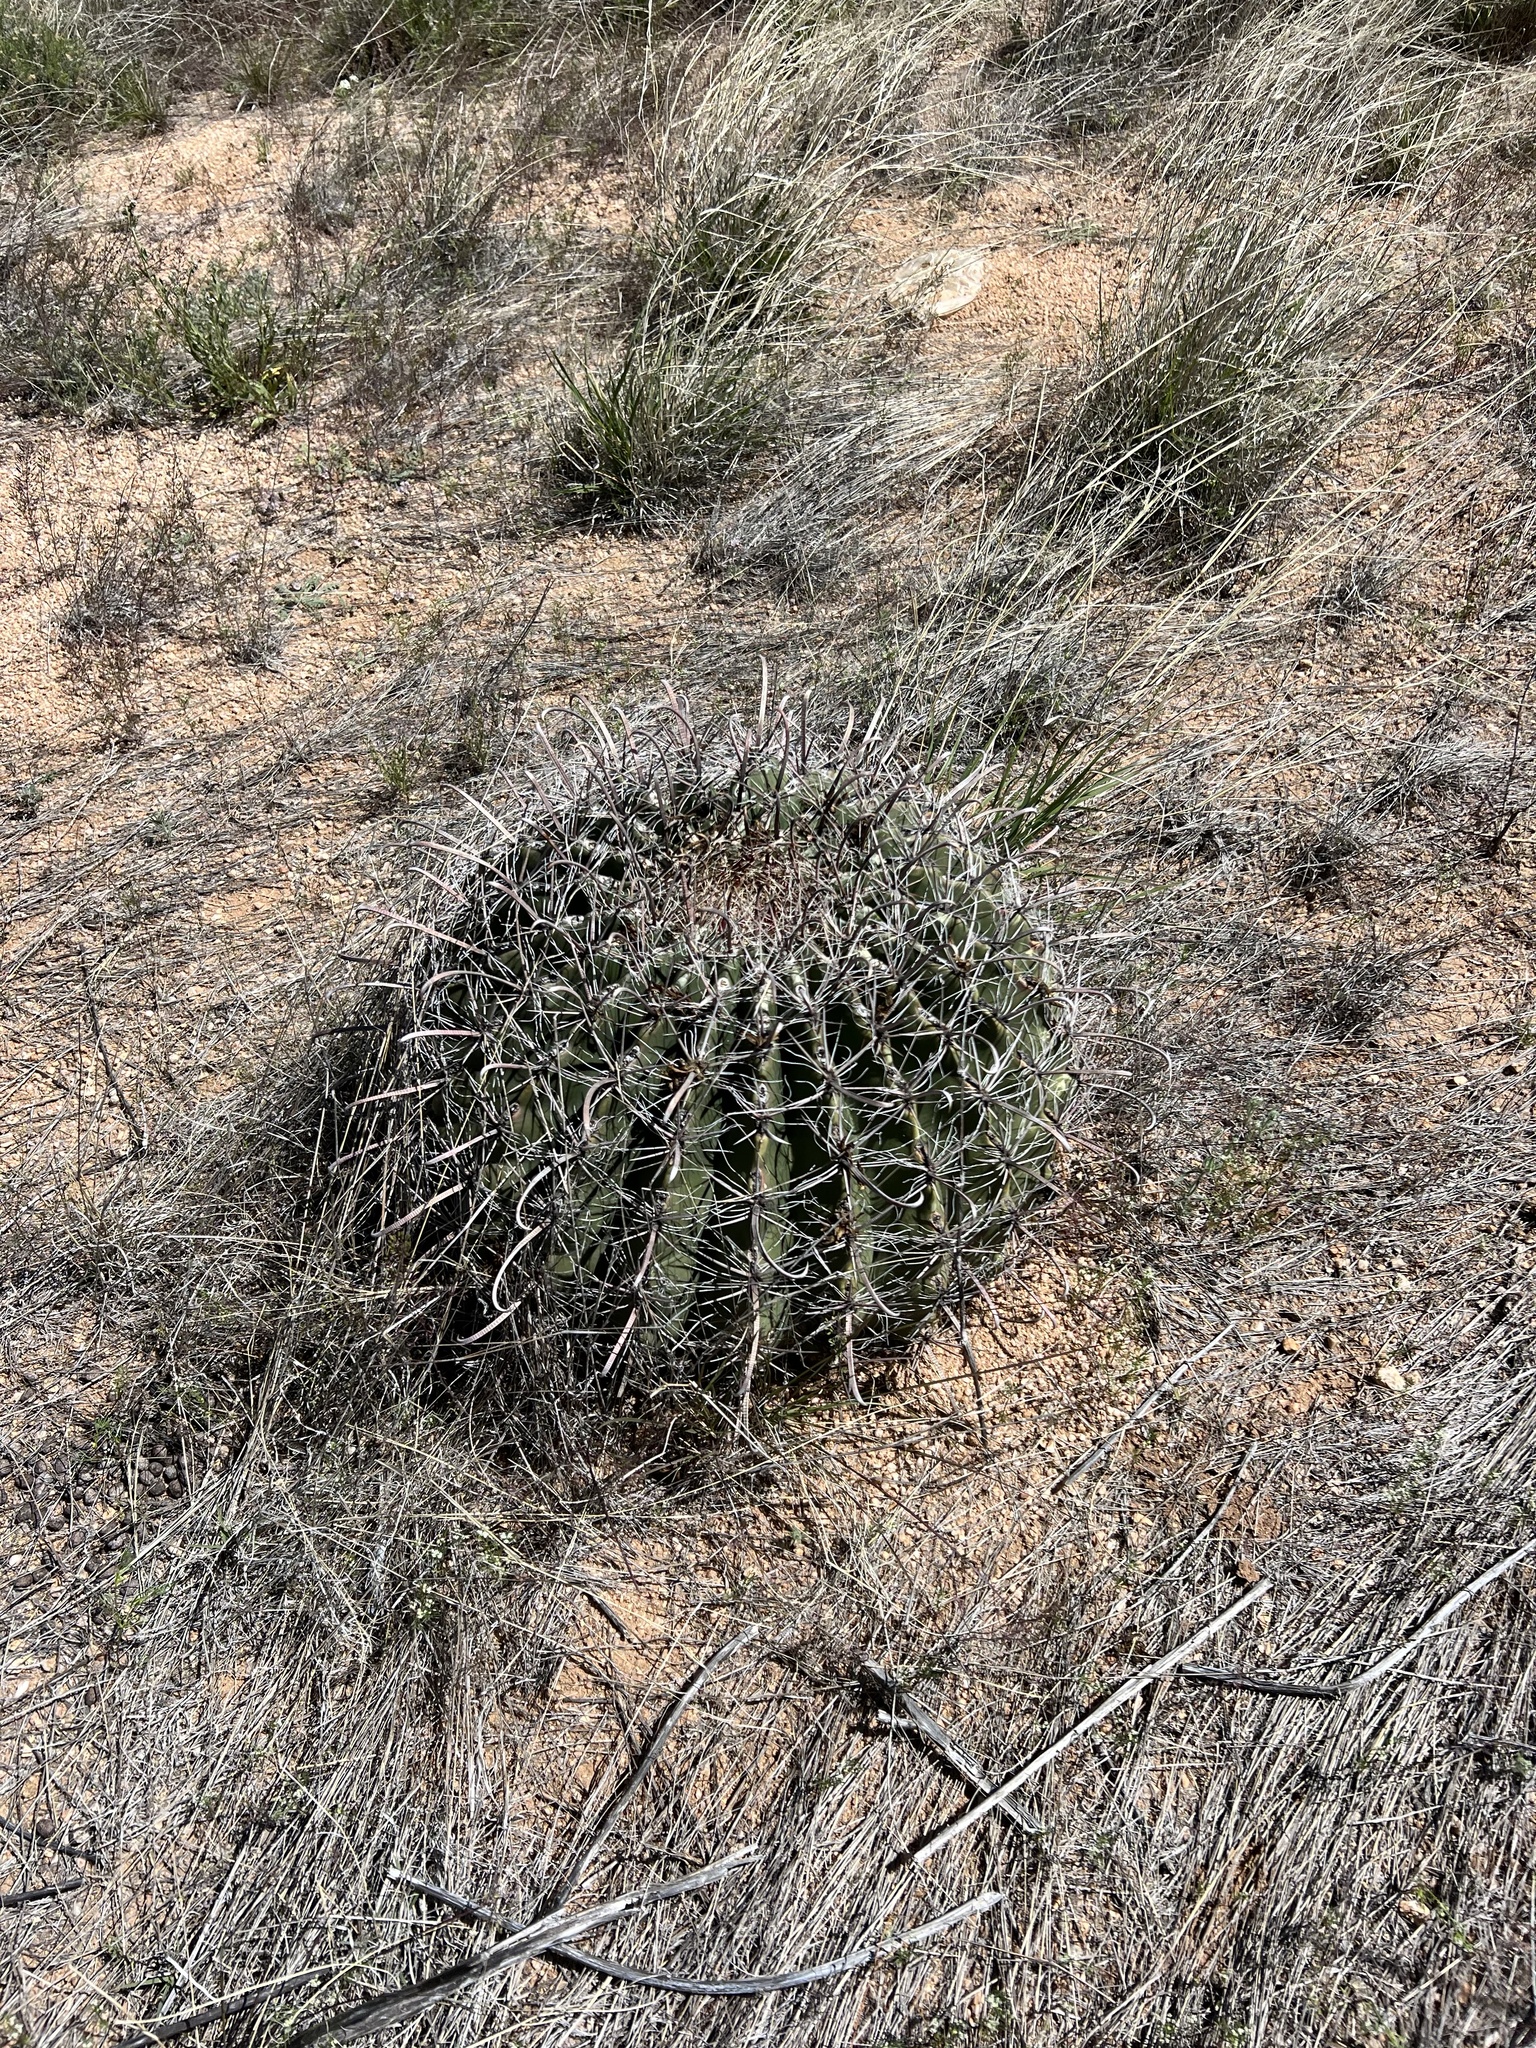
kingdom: Plantae
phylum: Tracheophyta
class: Magnoliopsida
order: Caryophyllales
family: Cactaceae
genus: Ferocactus
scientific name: Ferocactus wislizeni
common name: Candy barrel cactus
